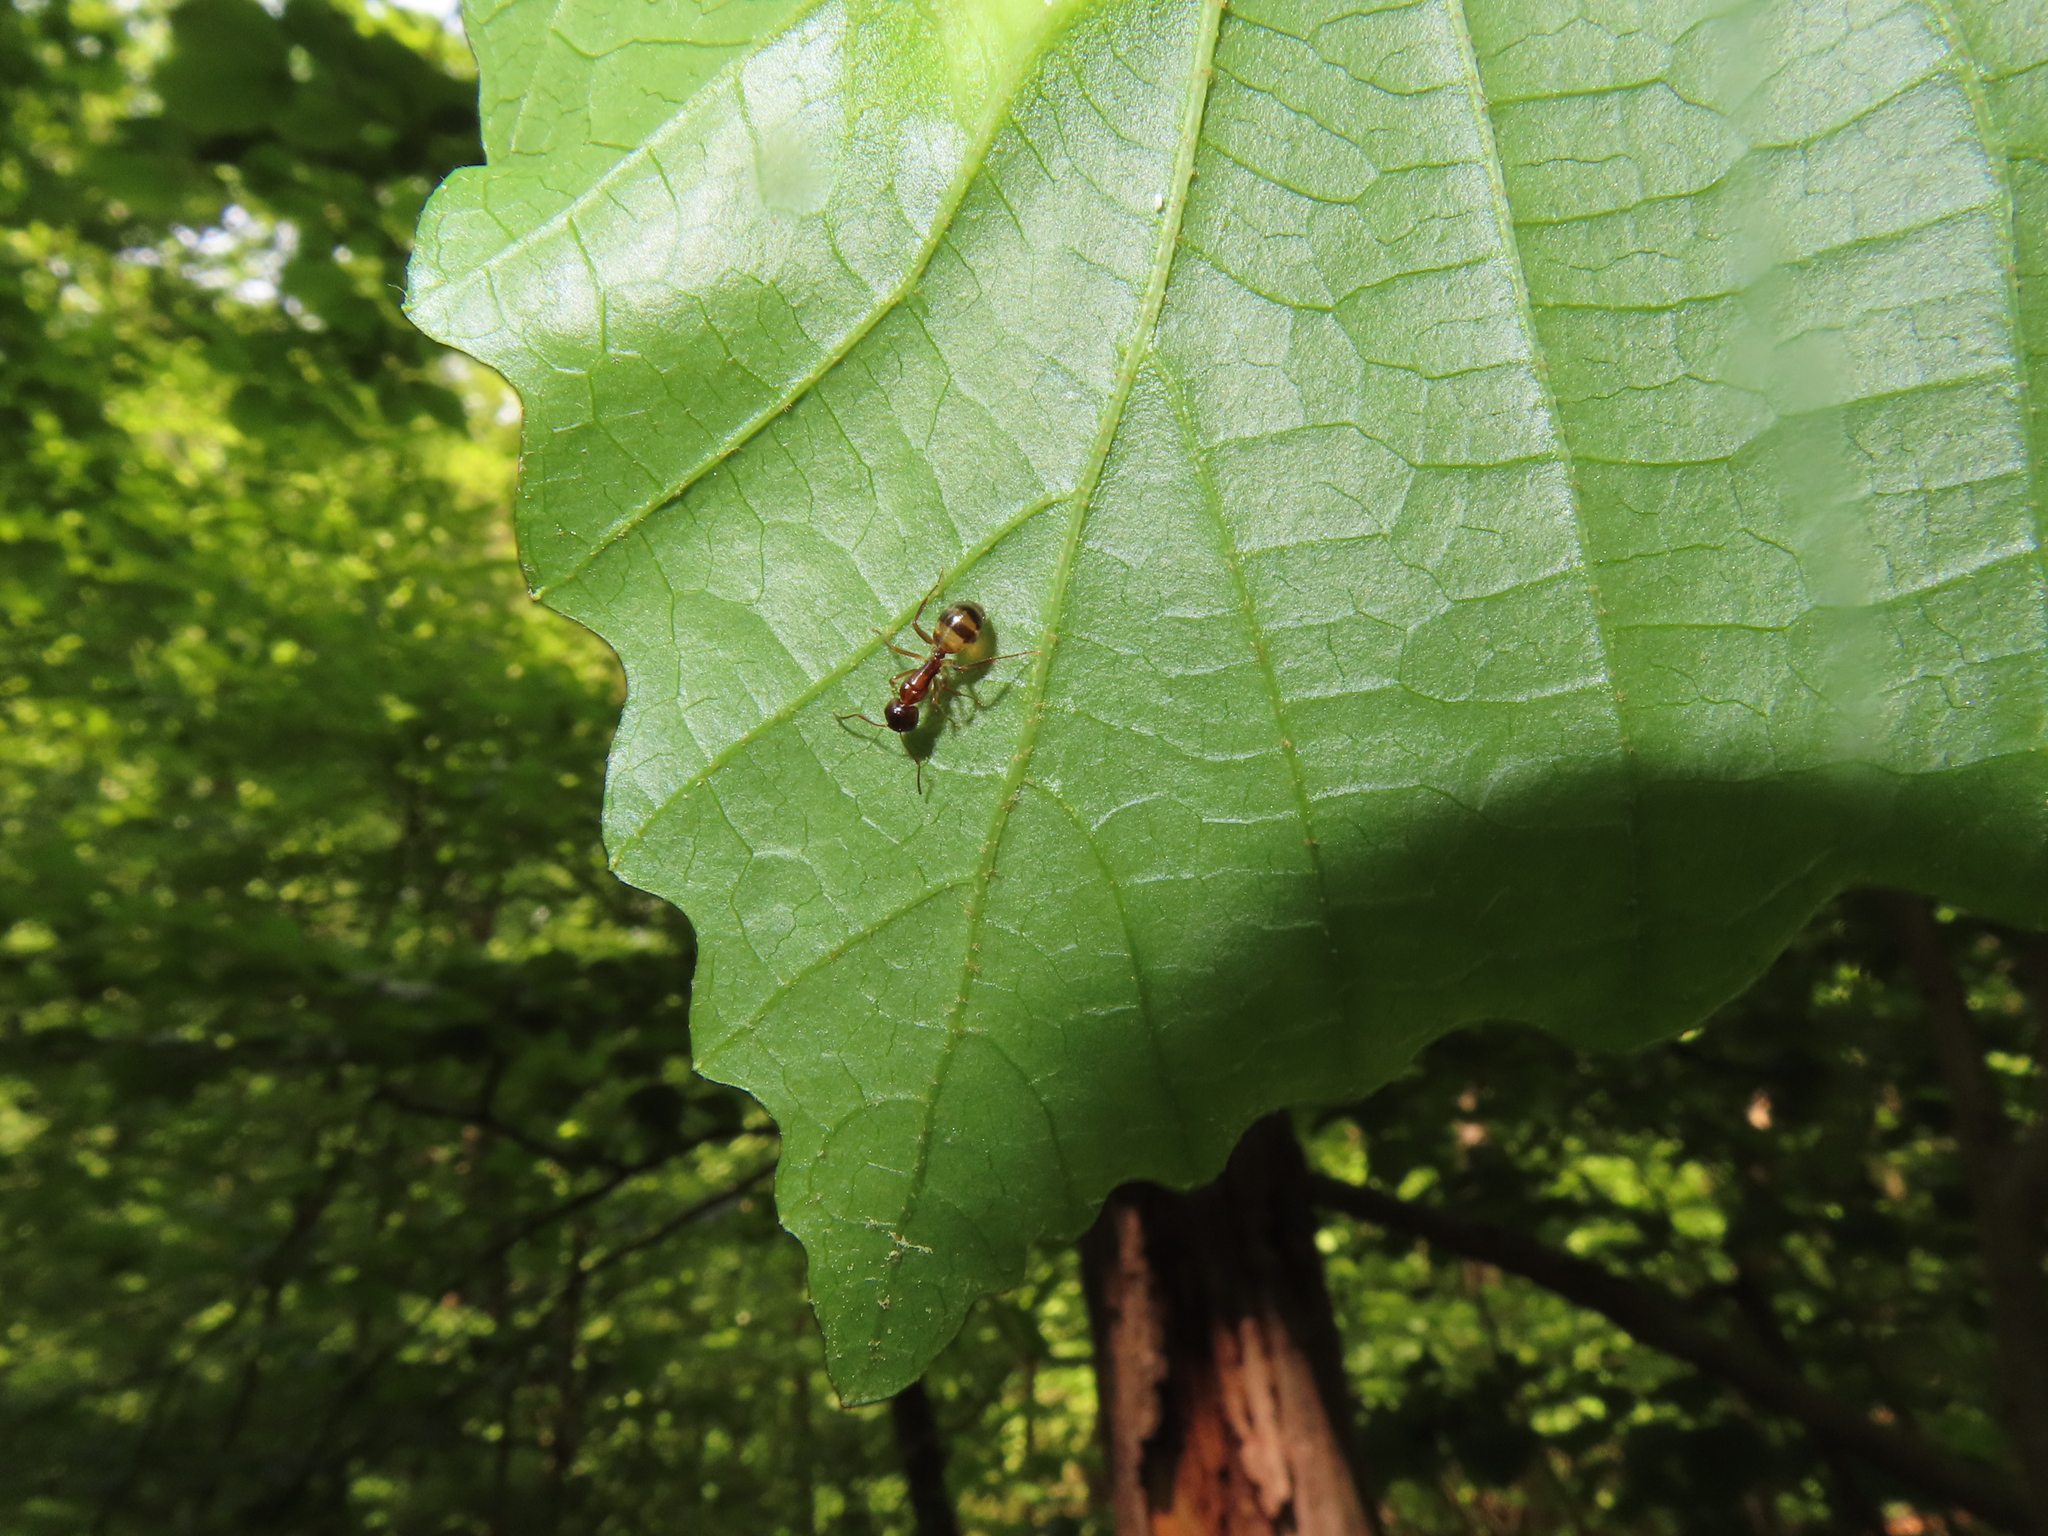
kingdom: Animalia
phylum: Arthropoda
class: Insecta
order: Hymenoptera
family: Formicidae
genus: Camponotus
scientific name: Camponotus subbarbatus
